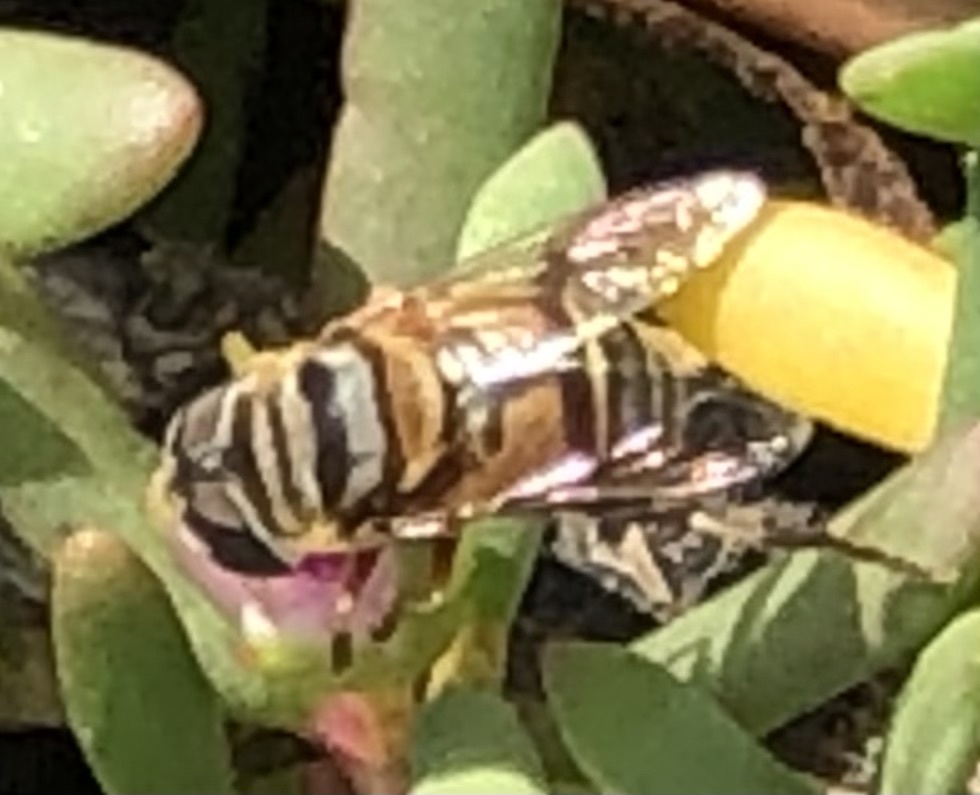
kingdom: Animalia
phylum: Arthropoda
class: Insecta
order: Diptera
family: Syrphidae
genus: Palpada
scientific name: Palpada vinetorum
